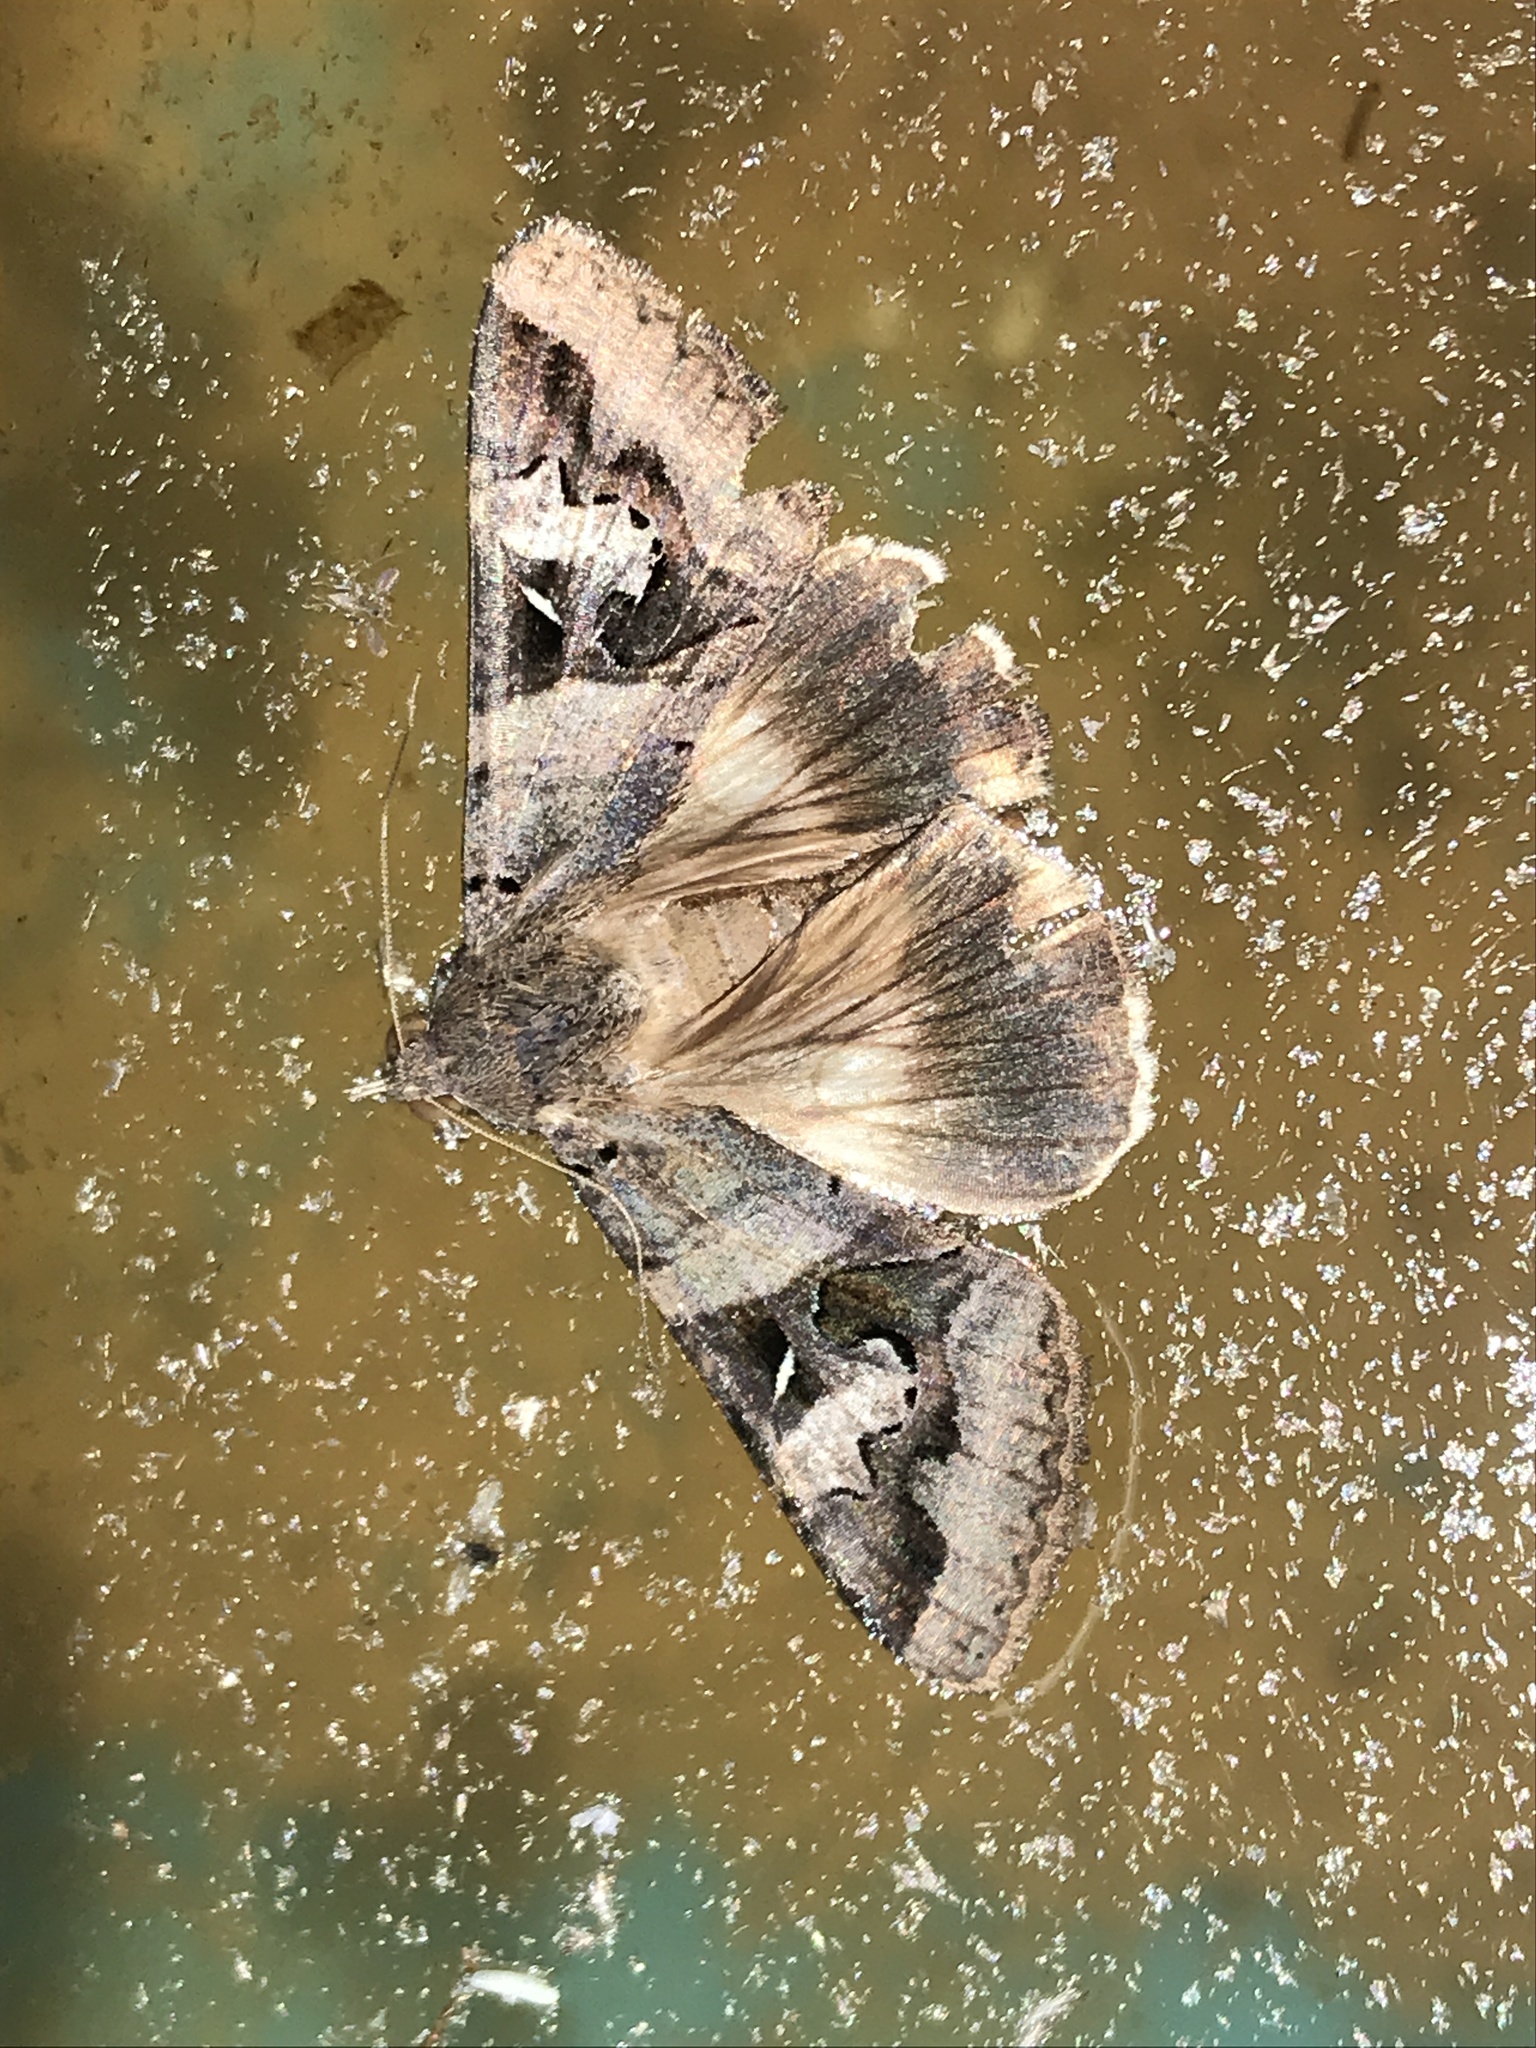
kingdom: Animalia
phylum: Arthropoda
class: Insecta
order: Lepidoptera
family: Erebidae
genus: Melipotis
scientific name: Melipotis indomita
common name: Moth
